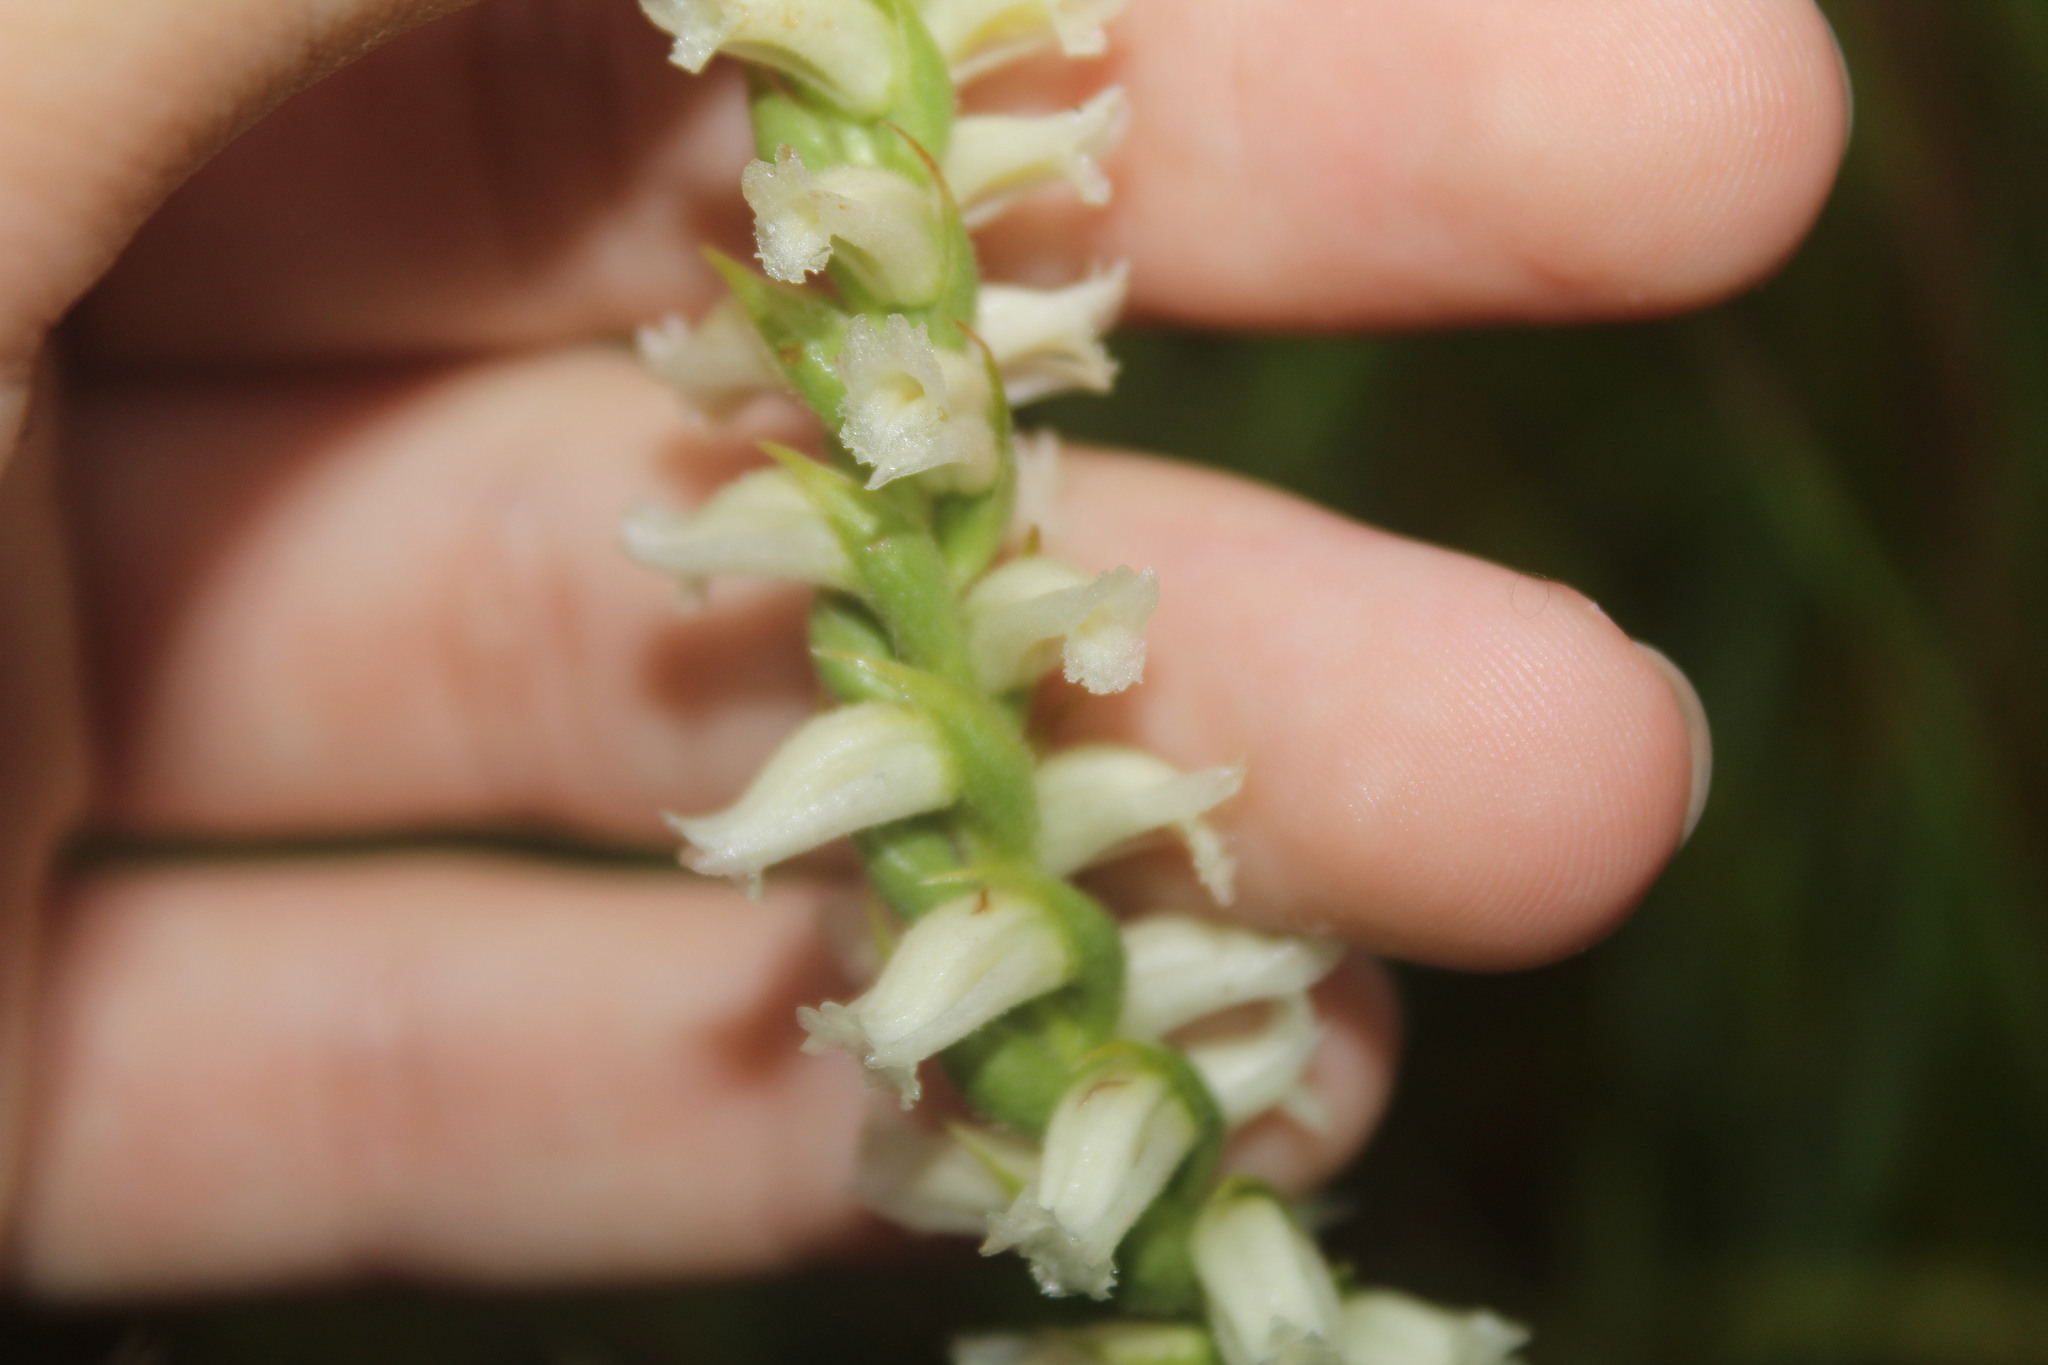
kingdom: Plantae
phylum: Tracheophyta
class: Liliopsida
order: Asparagales
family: Orchidaceae
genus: Spiranthes
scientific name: Spiranthes ochroleuca
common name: Yellow ladies'-tresses
